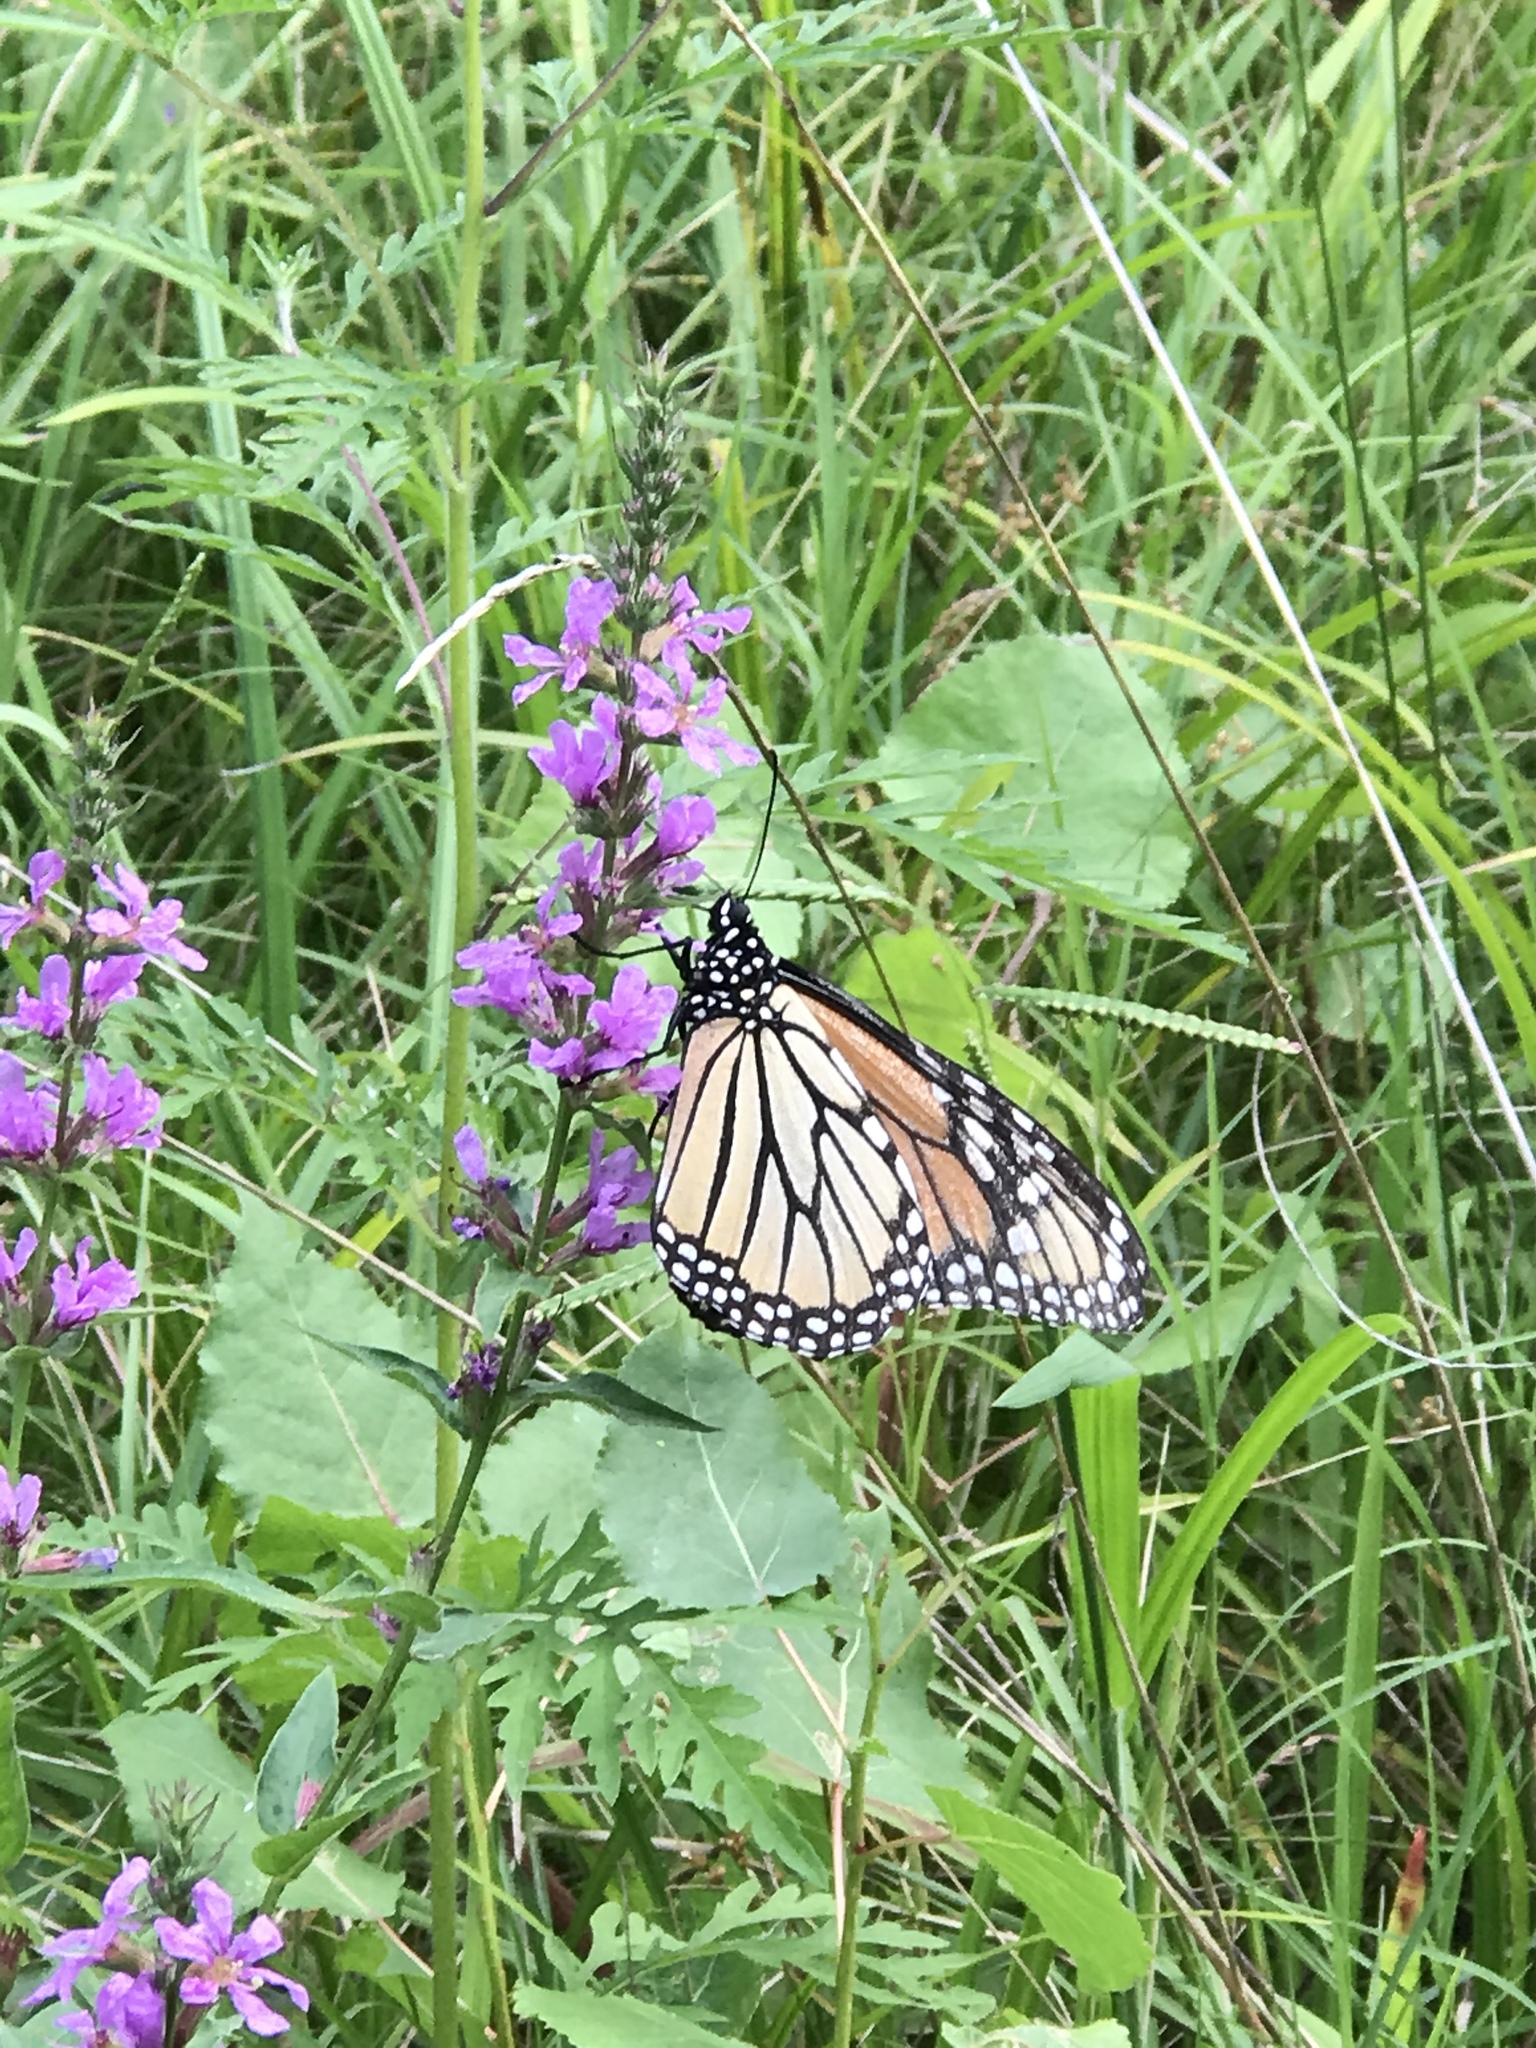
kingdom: Animalia
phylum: Arthropoda
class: Insecta
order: Lepidoptera
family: Nymphalidae
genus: Danaus
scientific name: Danaus plexippus
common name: Monarch
